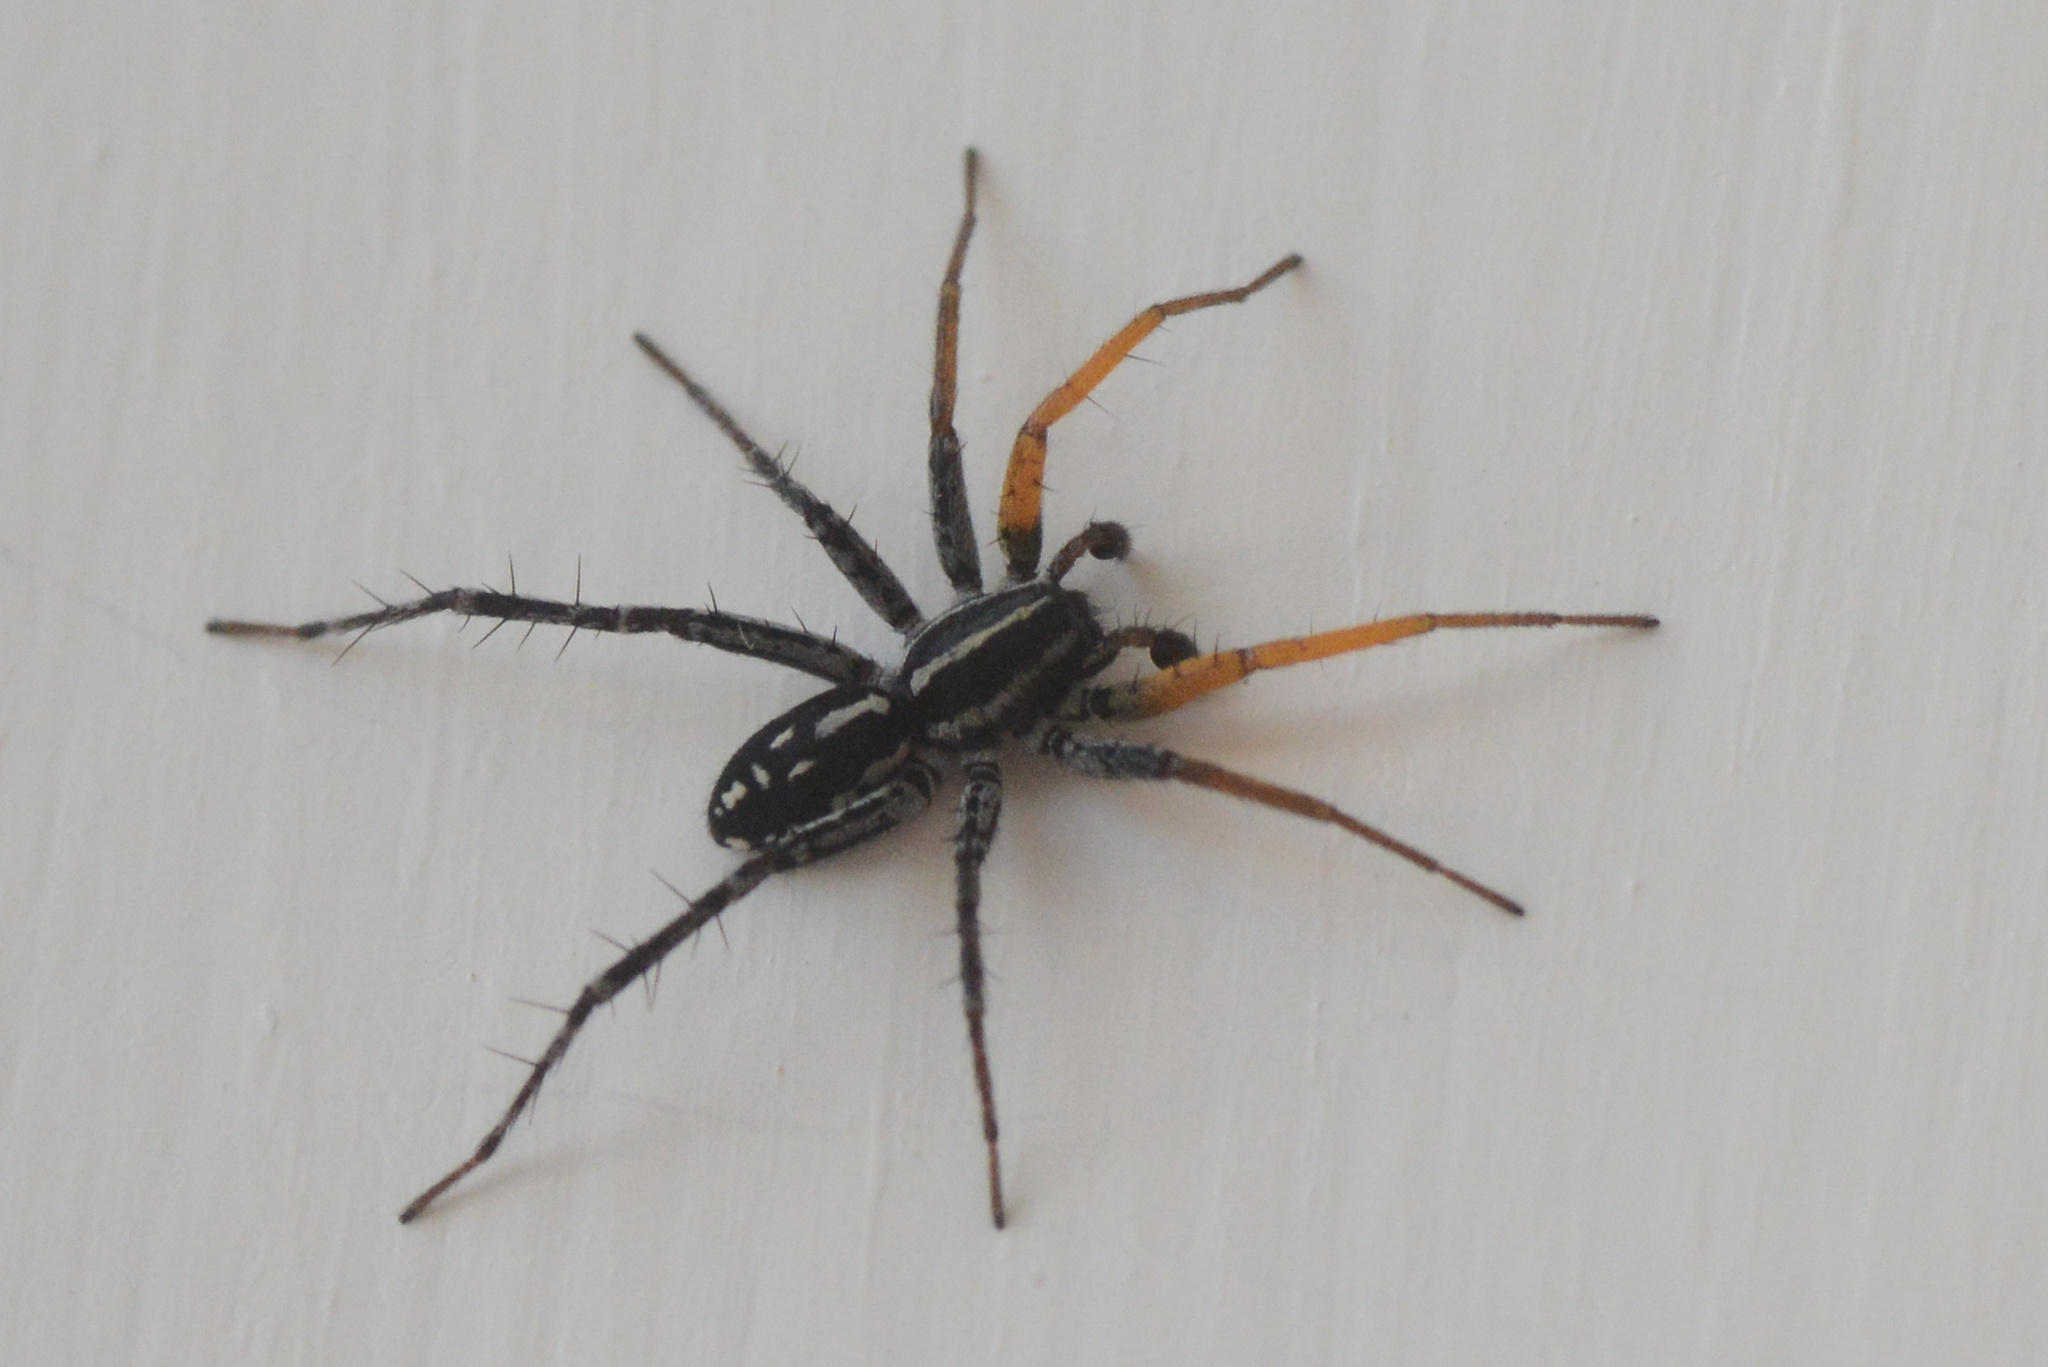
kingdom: Animalia
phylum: Arthropoda
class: Arachnida
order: Araneae
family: Corinnidae
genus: Nyssus
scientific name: Nyssus coloripes
